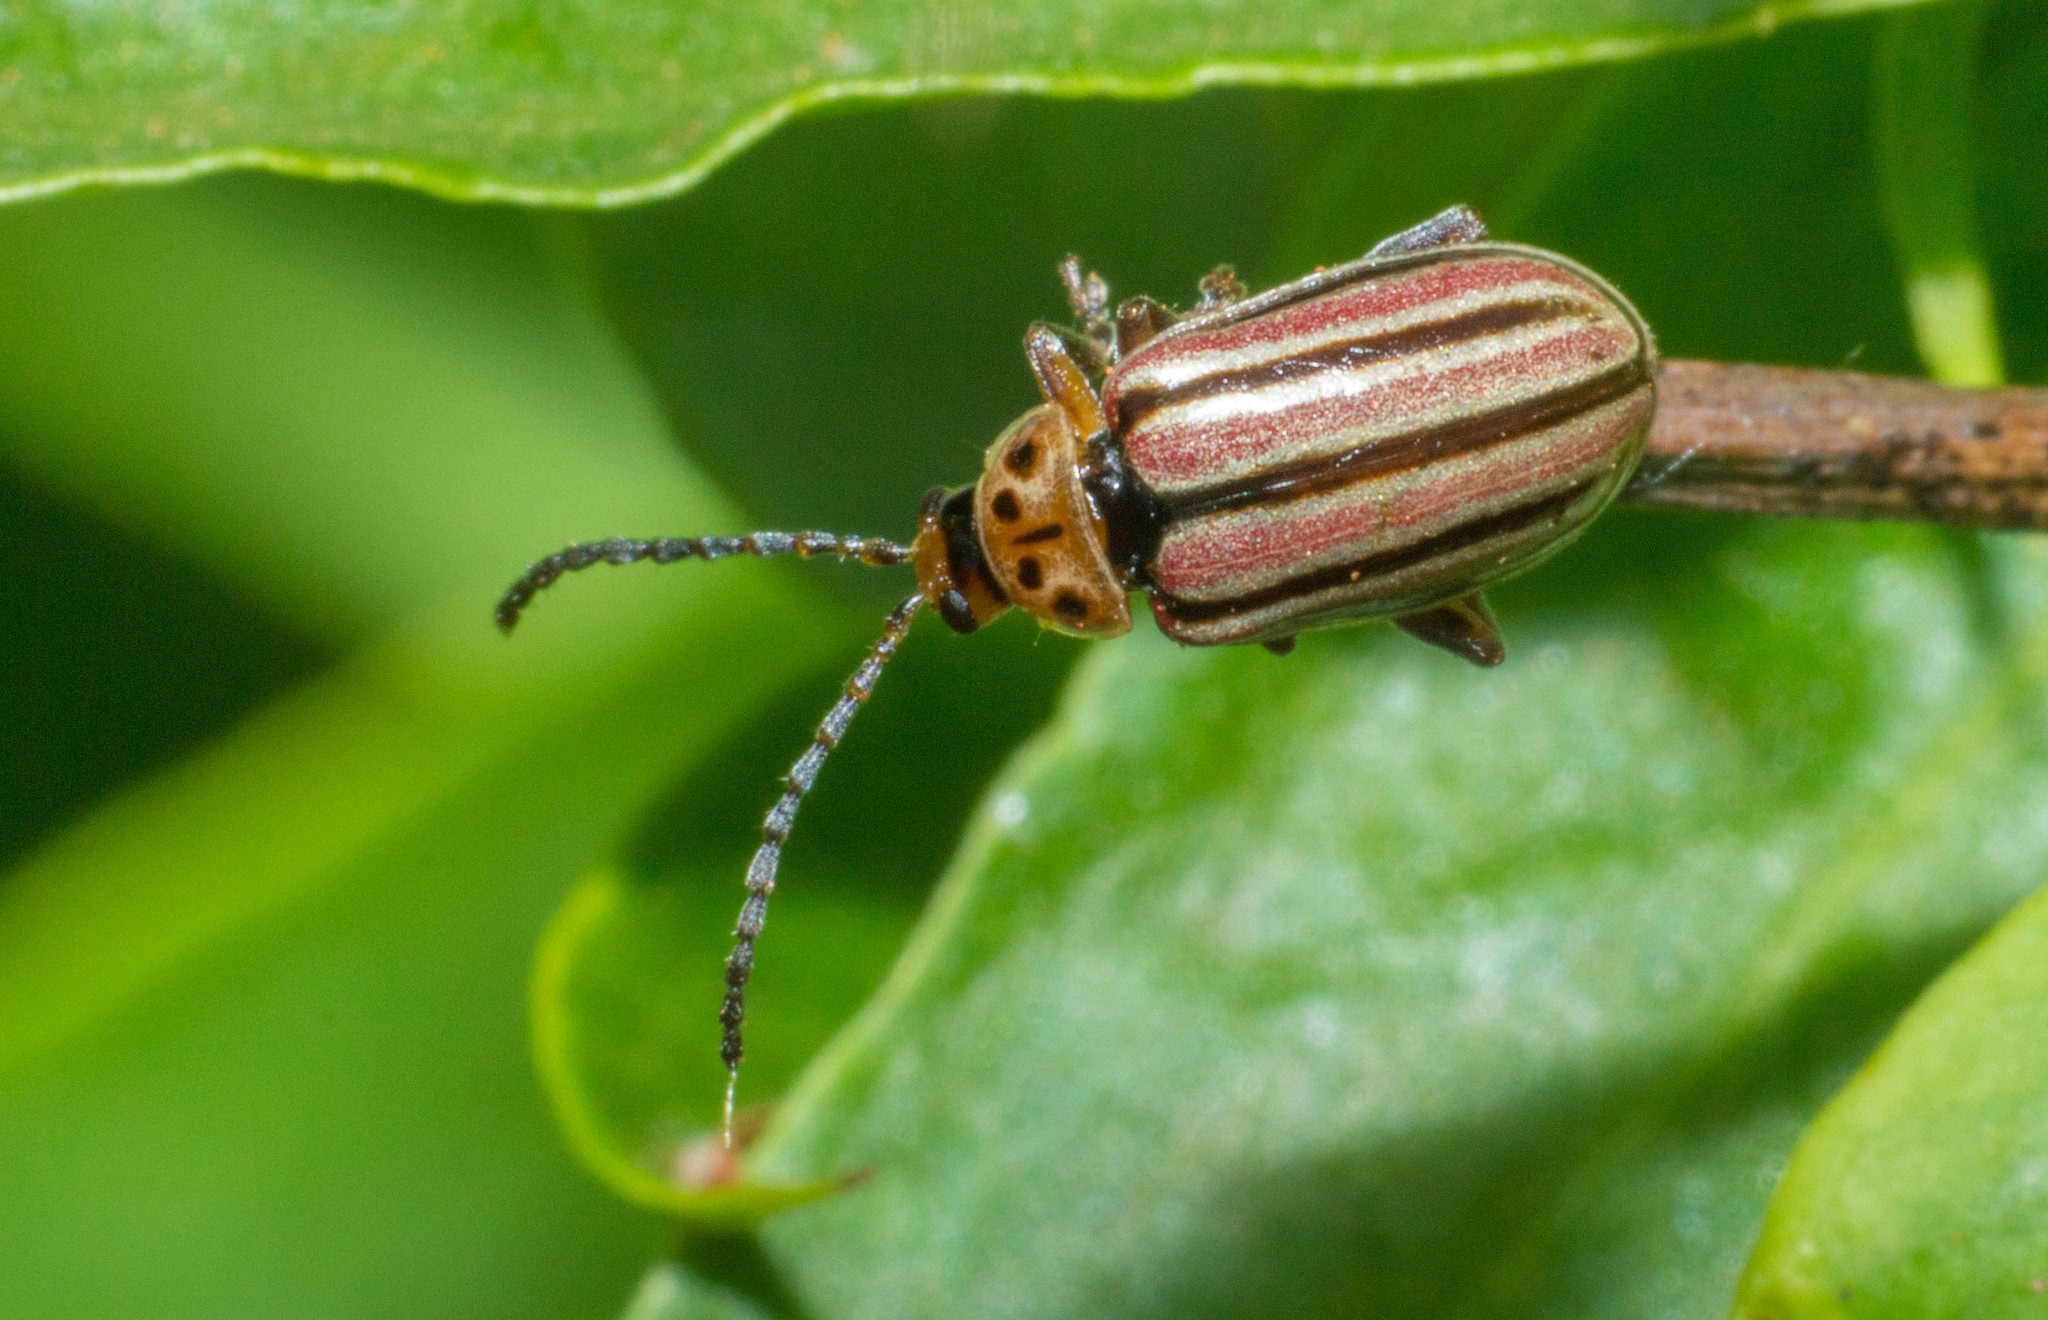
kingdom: Animalia
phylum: Arthropoda
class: Insecta
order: Coleoptera
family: Chrysomelidae
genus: Disonycha
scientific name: Disonycha
